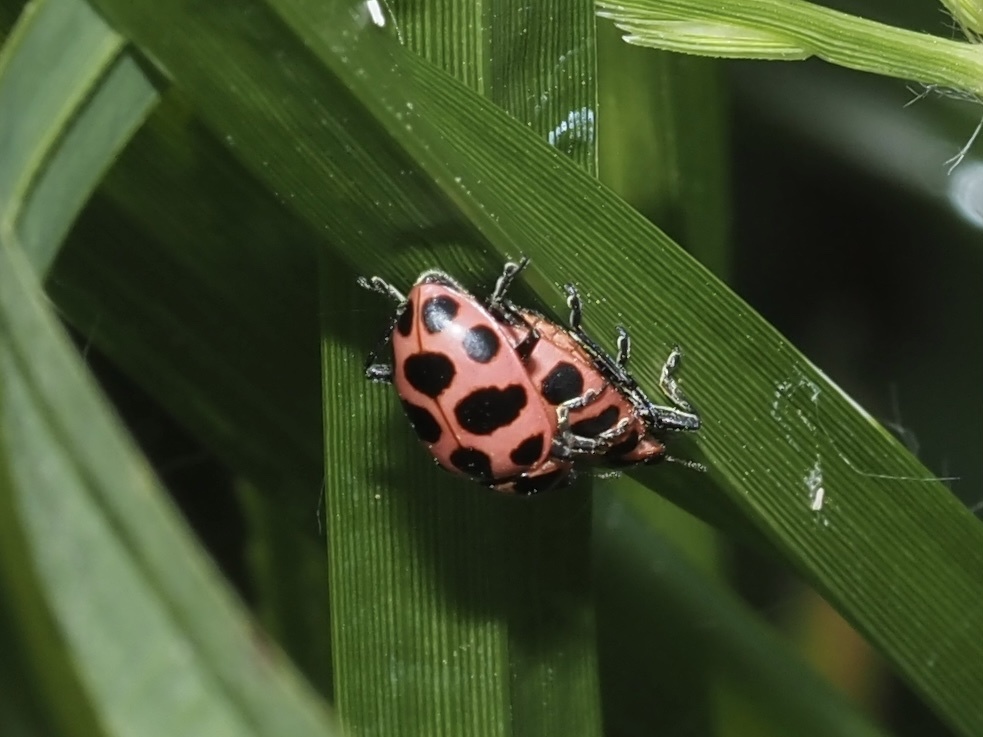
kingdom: Animalia
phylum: Arthropoda
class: Insecta
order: Coleoptera
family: Coccinellidae
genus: Coleomegilla
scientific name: Coleomegilla maculata
